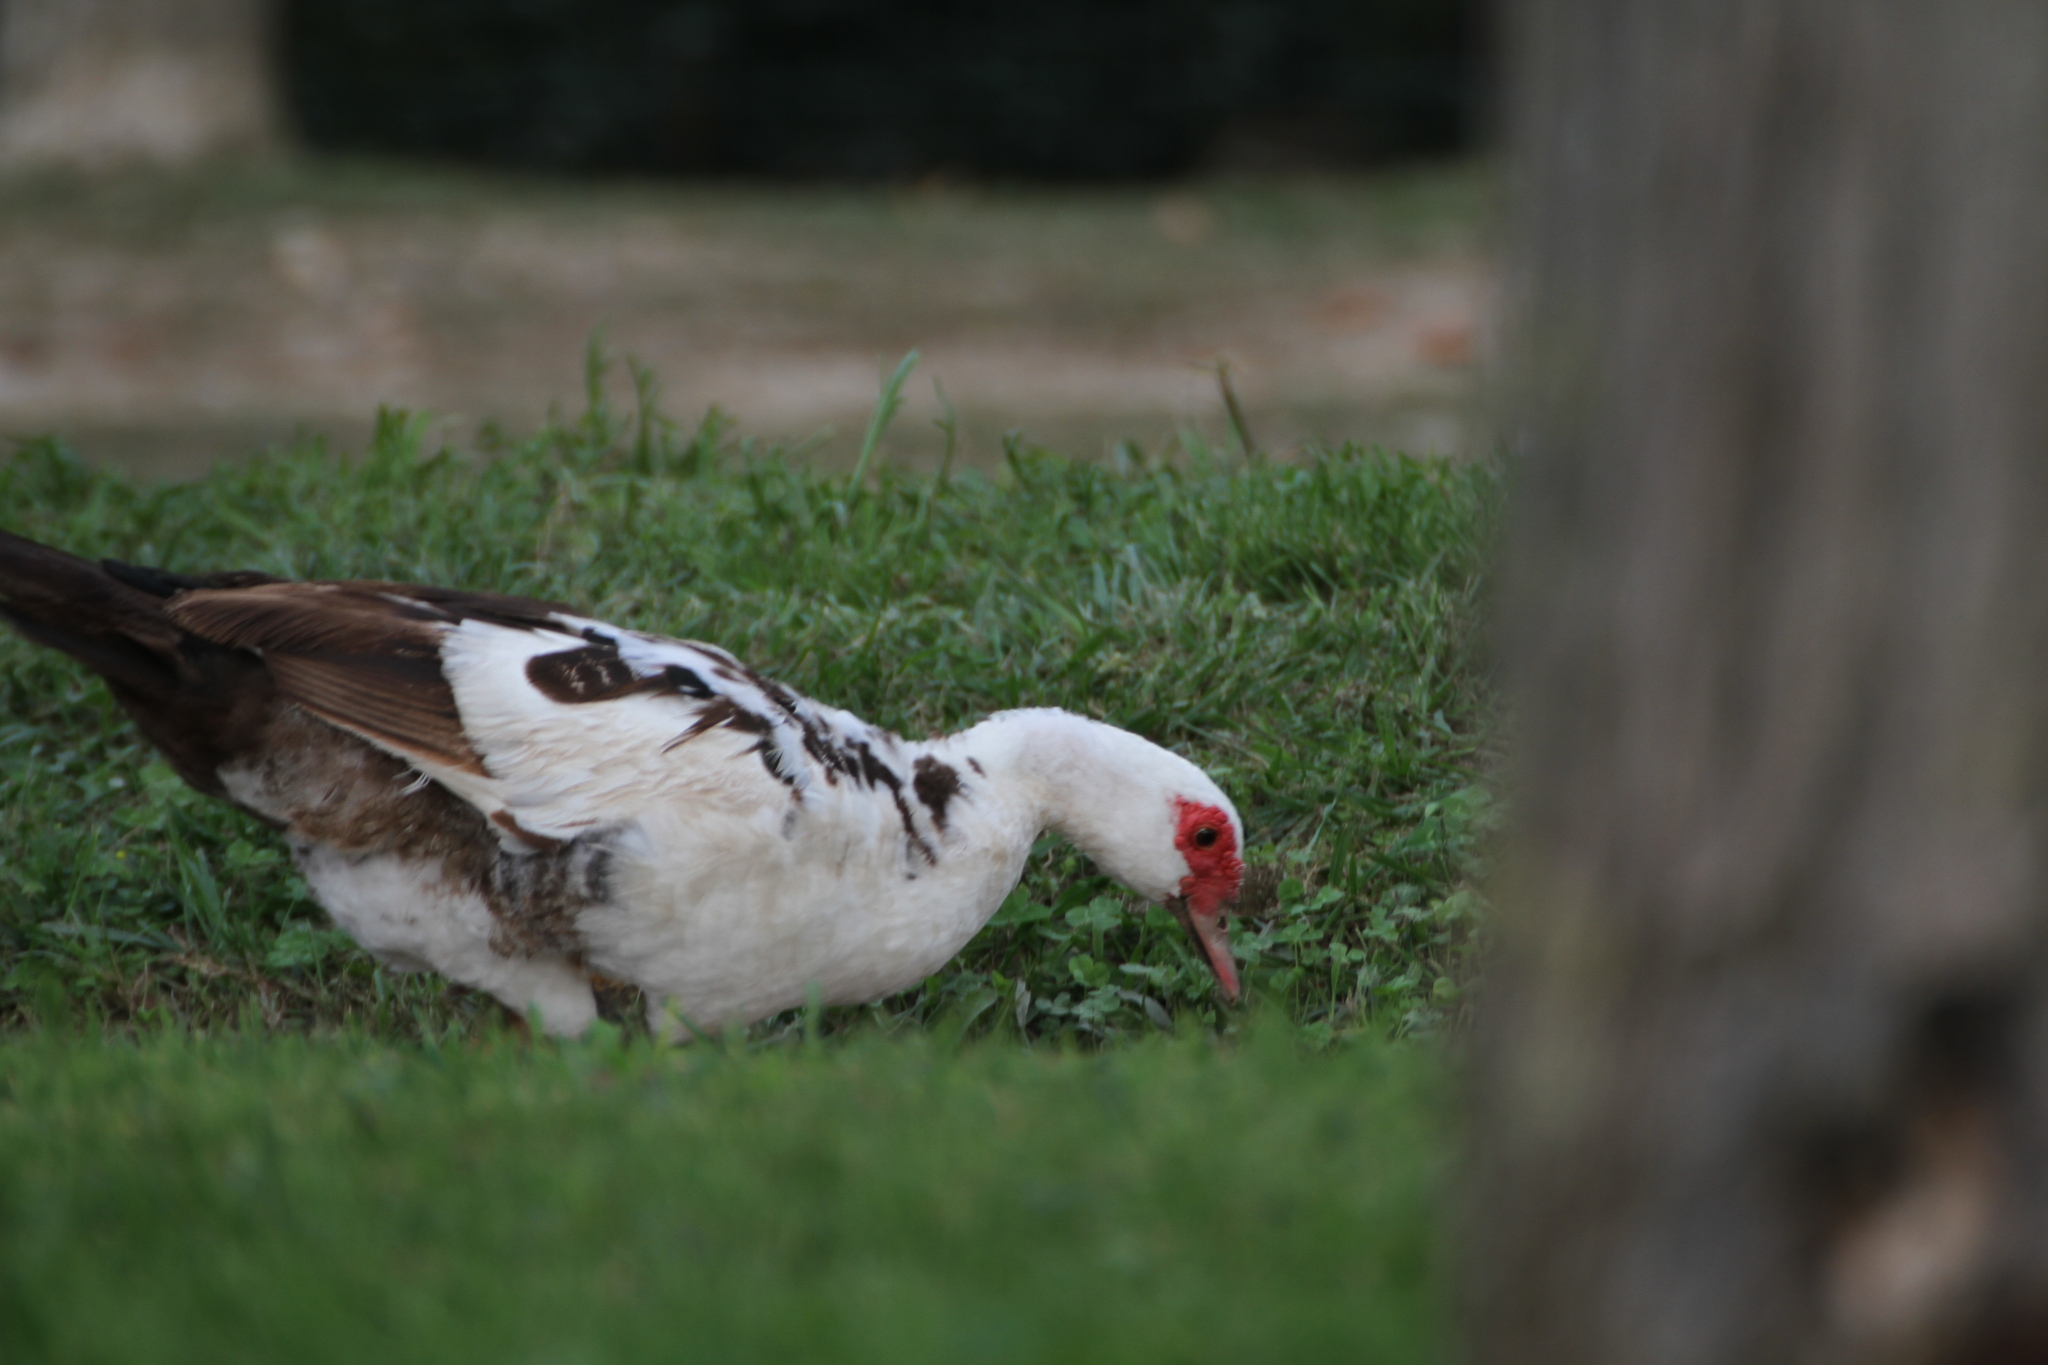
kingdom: Animalia
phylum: Chordata
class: Aves
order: Anseriformes
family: Anatidae
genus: Cairina
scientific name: Cairina moschata
